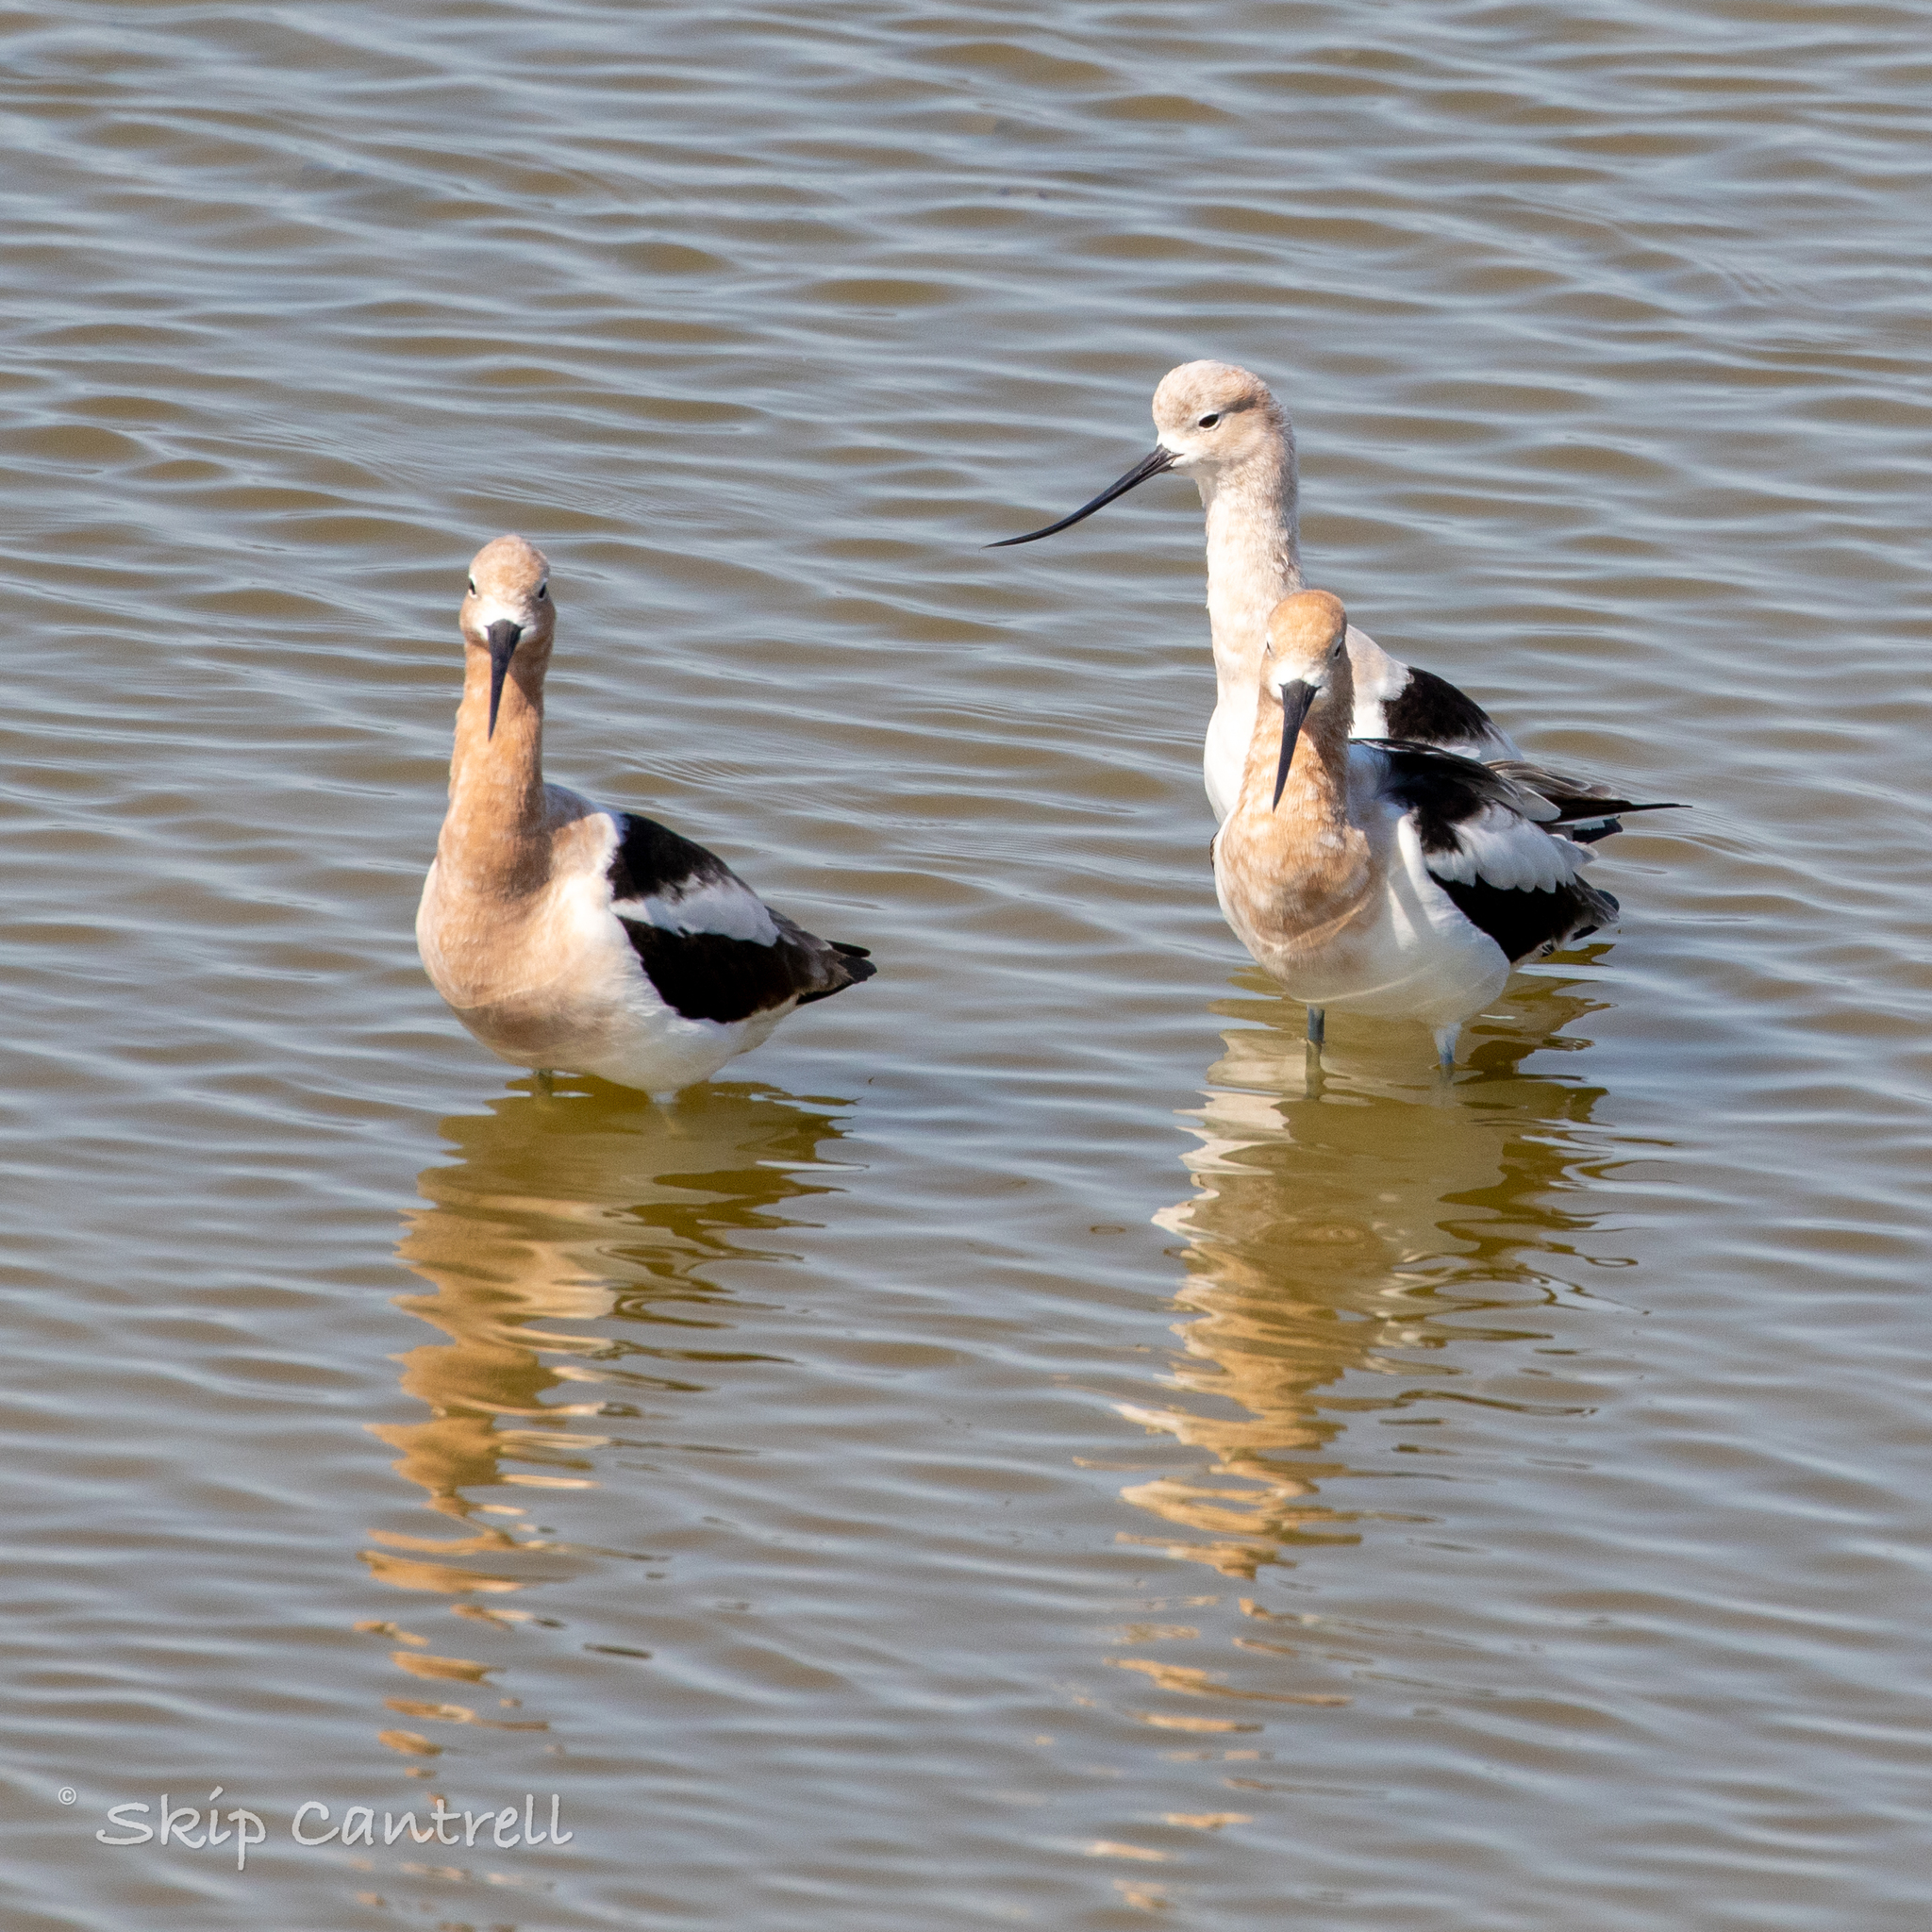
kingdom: Animalia
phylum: Chordata
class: Aves
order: Charadriiformes
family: Recurvirostridae
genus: Recurvirostra
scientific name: Recurvirostra americana
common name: American avocet
